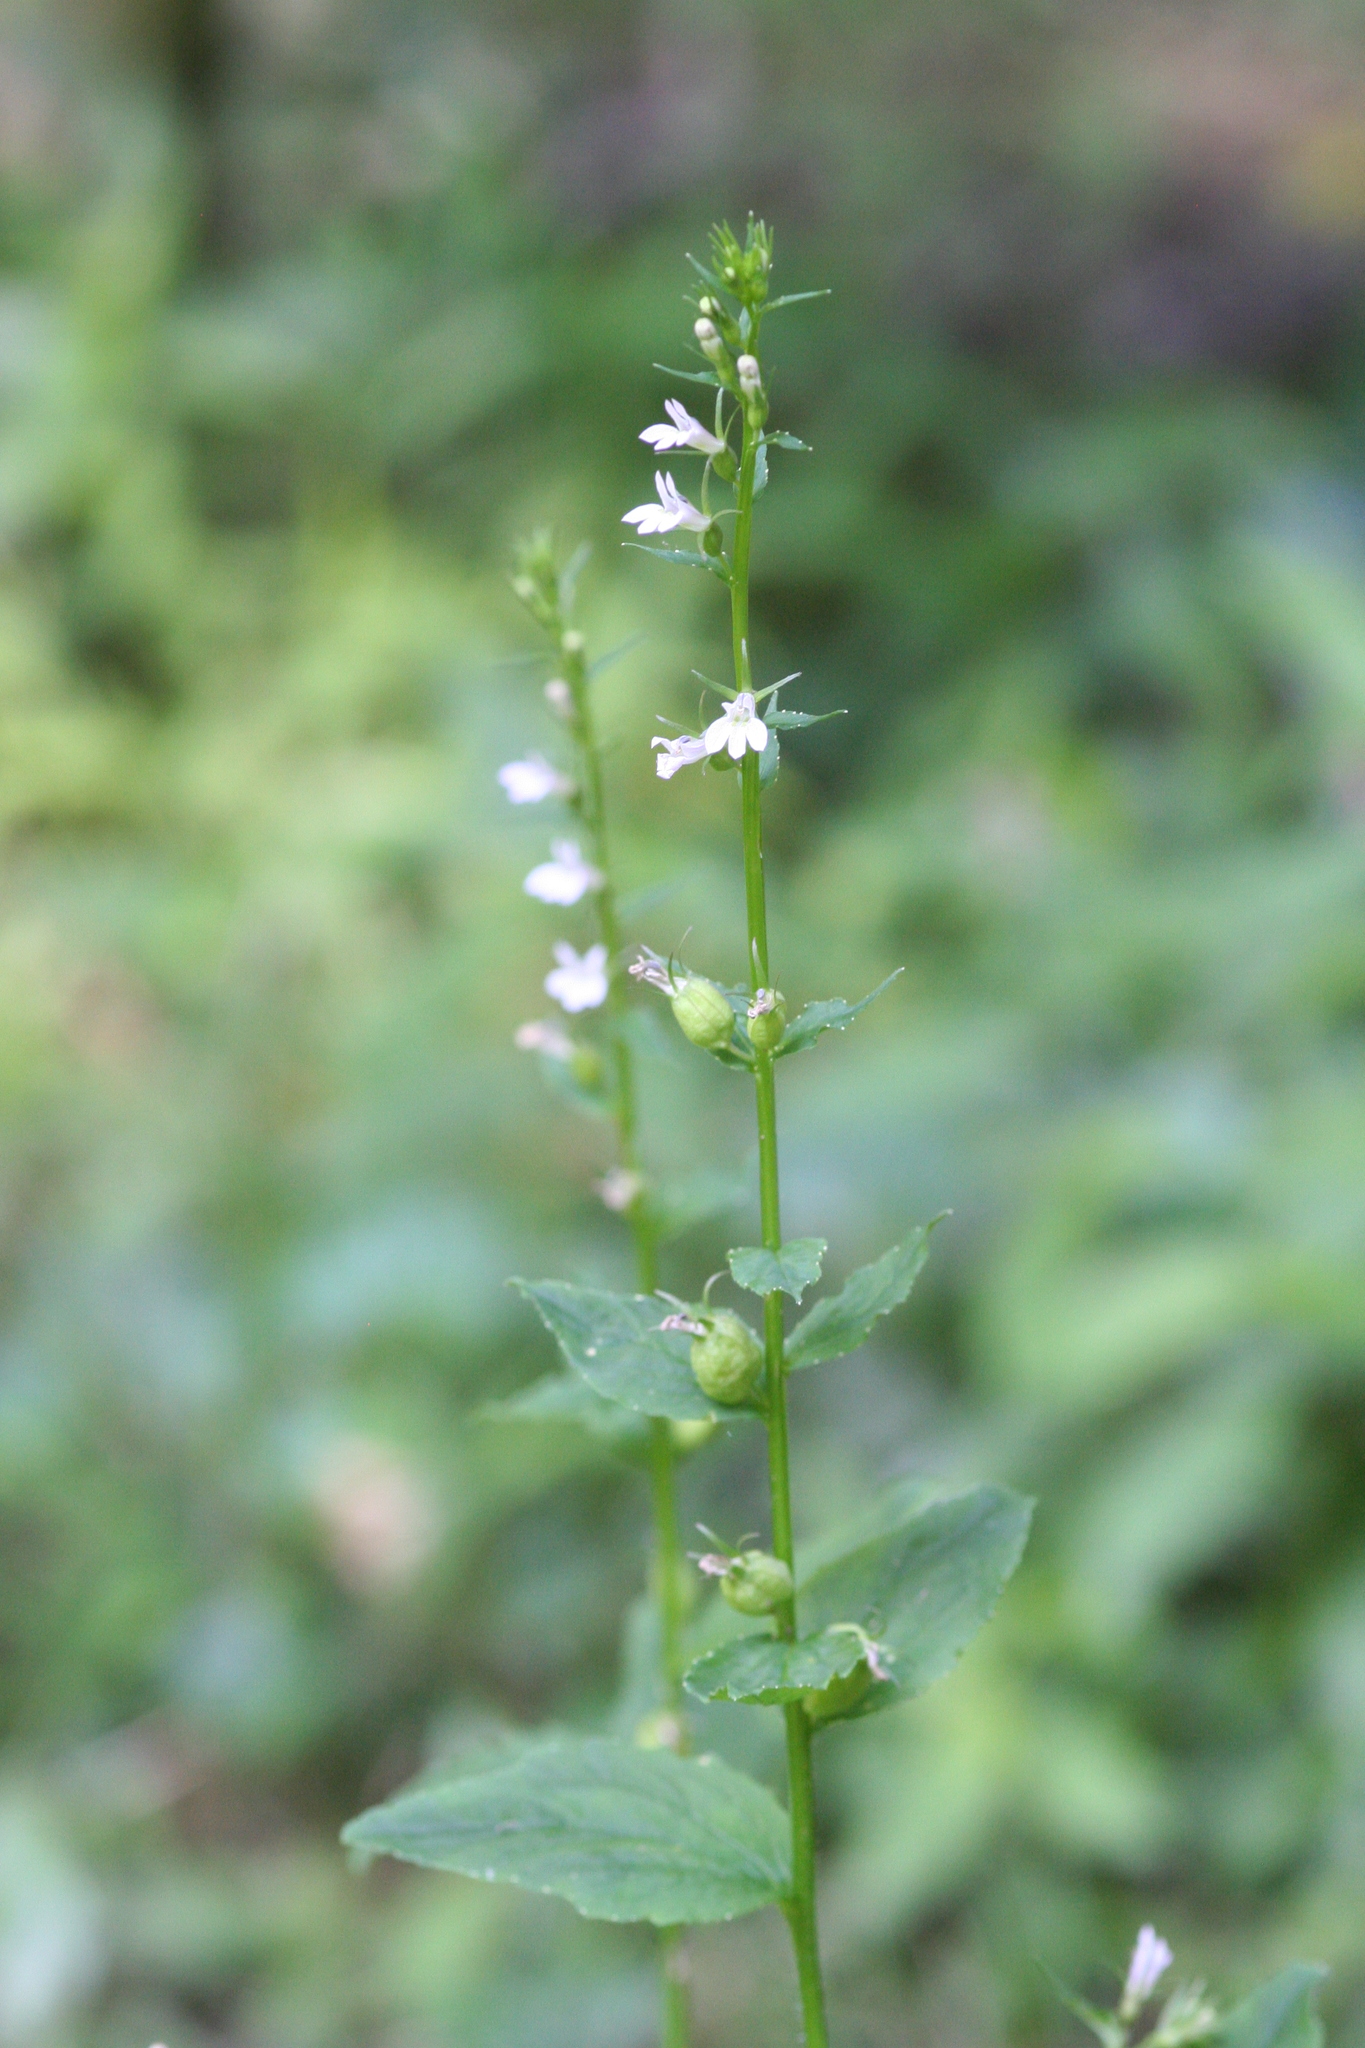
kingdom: Plantae
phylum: Tracheophyta
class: Magnoliopsida
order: Asterales
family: Campanulaceae
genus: Lobelia
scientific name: Lobelia inflata
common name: Indian tobacco
